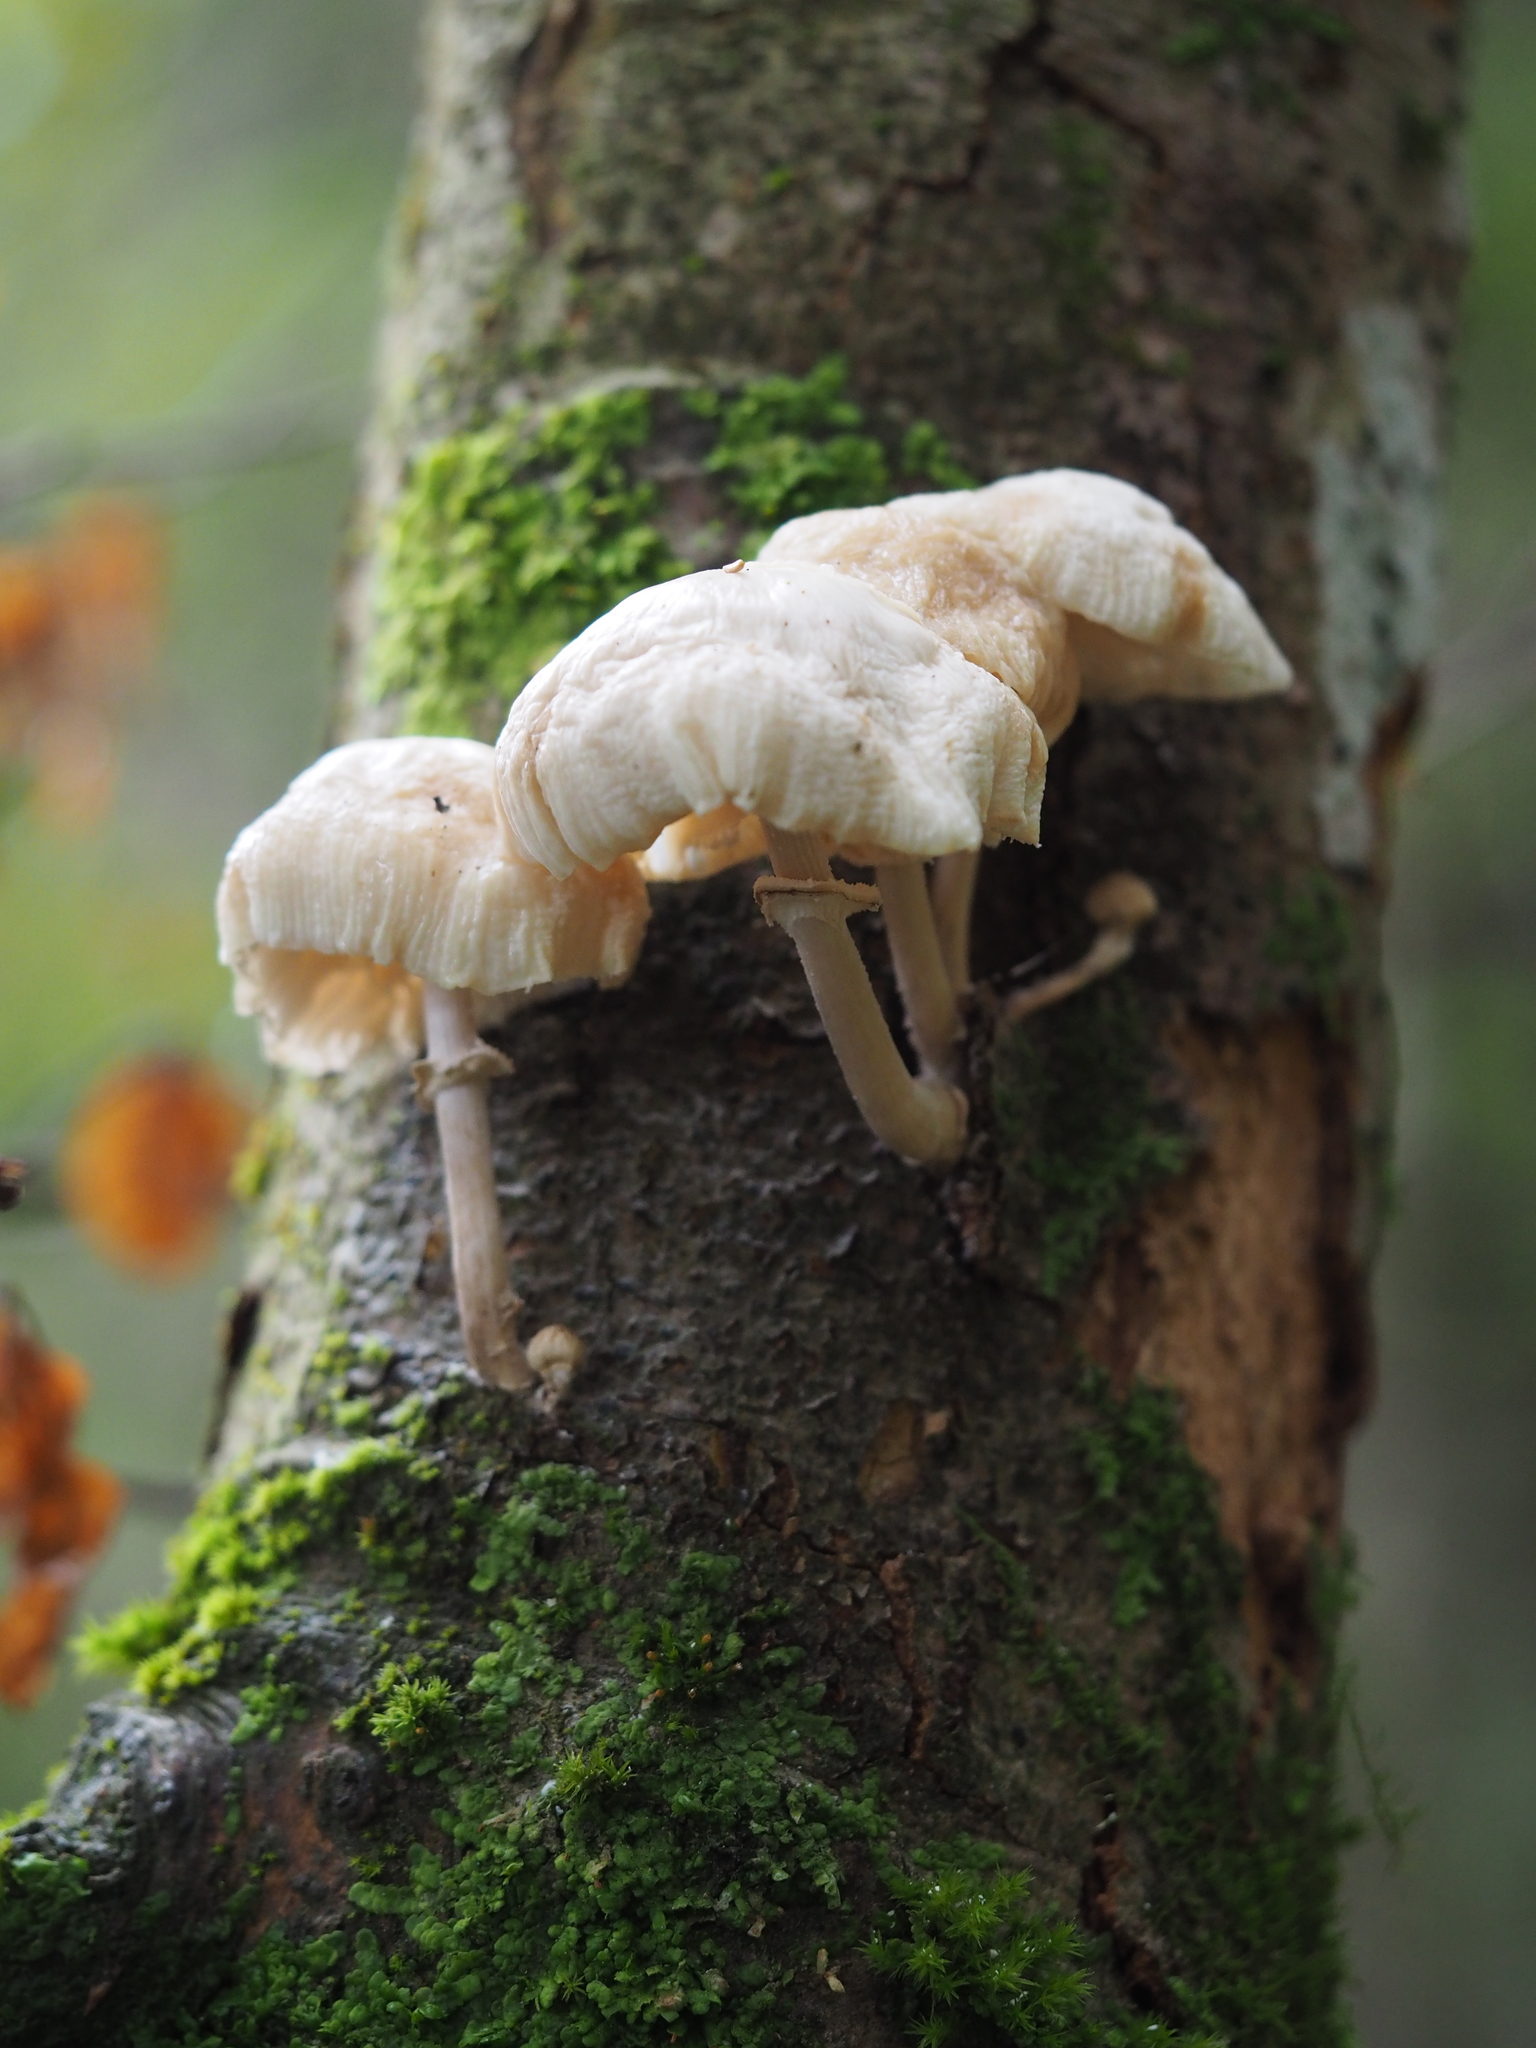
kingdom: Fungi
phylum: Basidiomycota
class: Agaricomycetes
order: Agaricales
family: Physalacriaceae
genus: Mucidula
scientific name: Mucidula mucida
